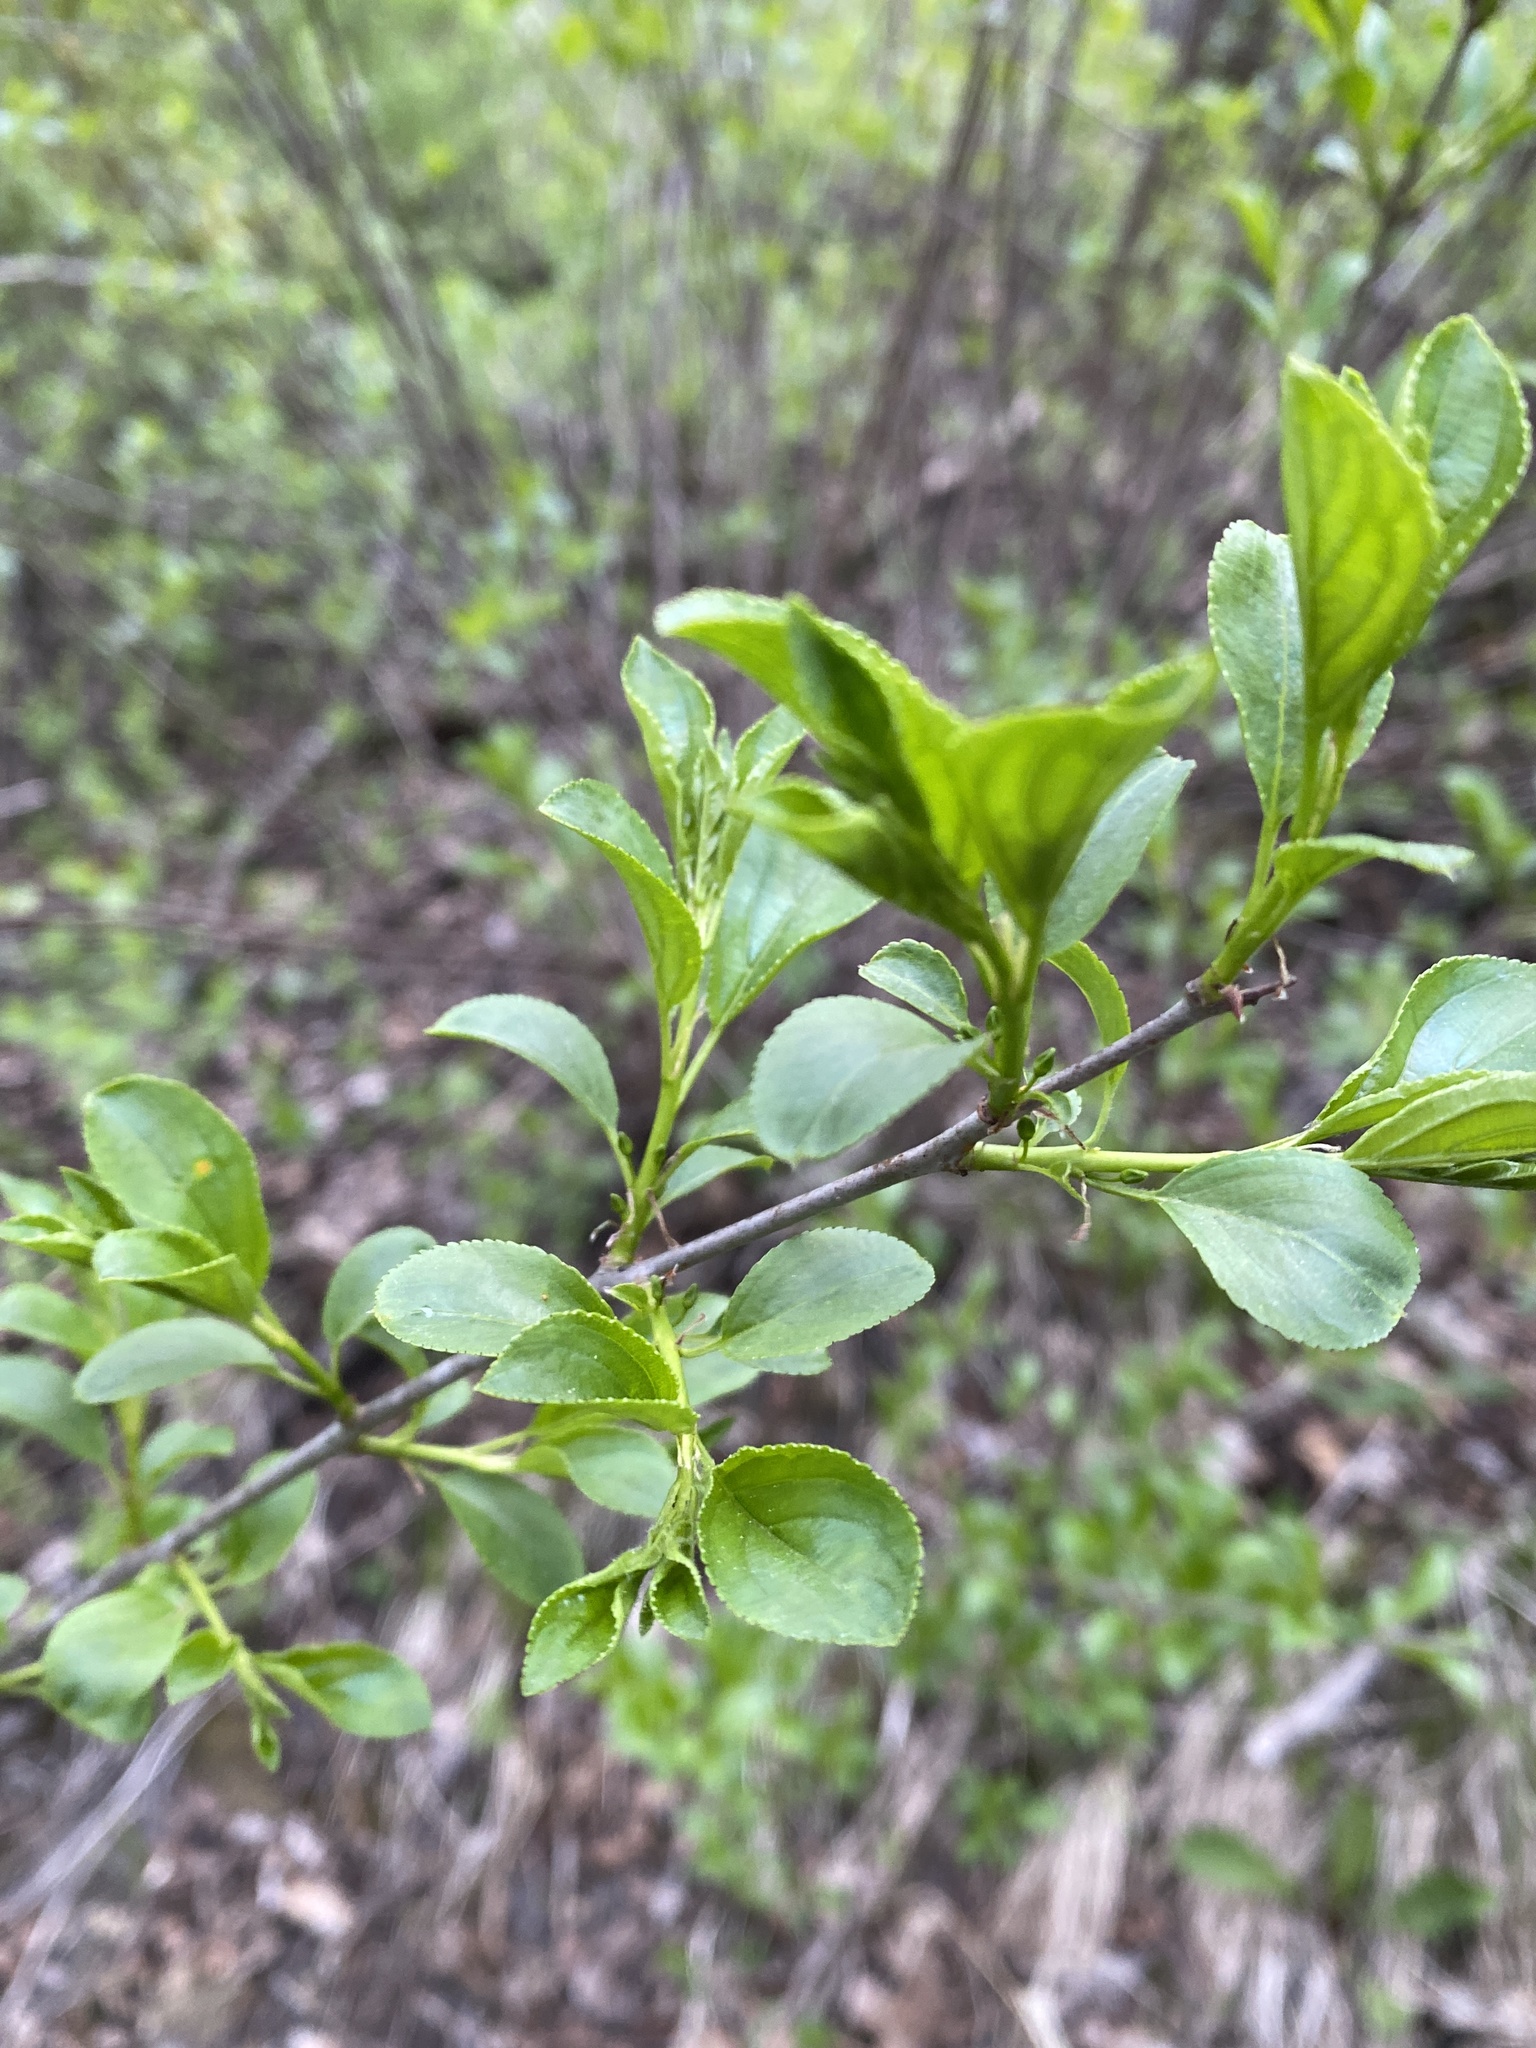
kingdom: Plantae
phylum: Tracheophyta
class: Magnoliopsida
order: Rosales
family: Rhamnaceae
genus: Rhamnus
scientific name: Rhamnus cathartica
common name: Common buckthorn
